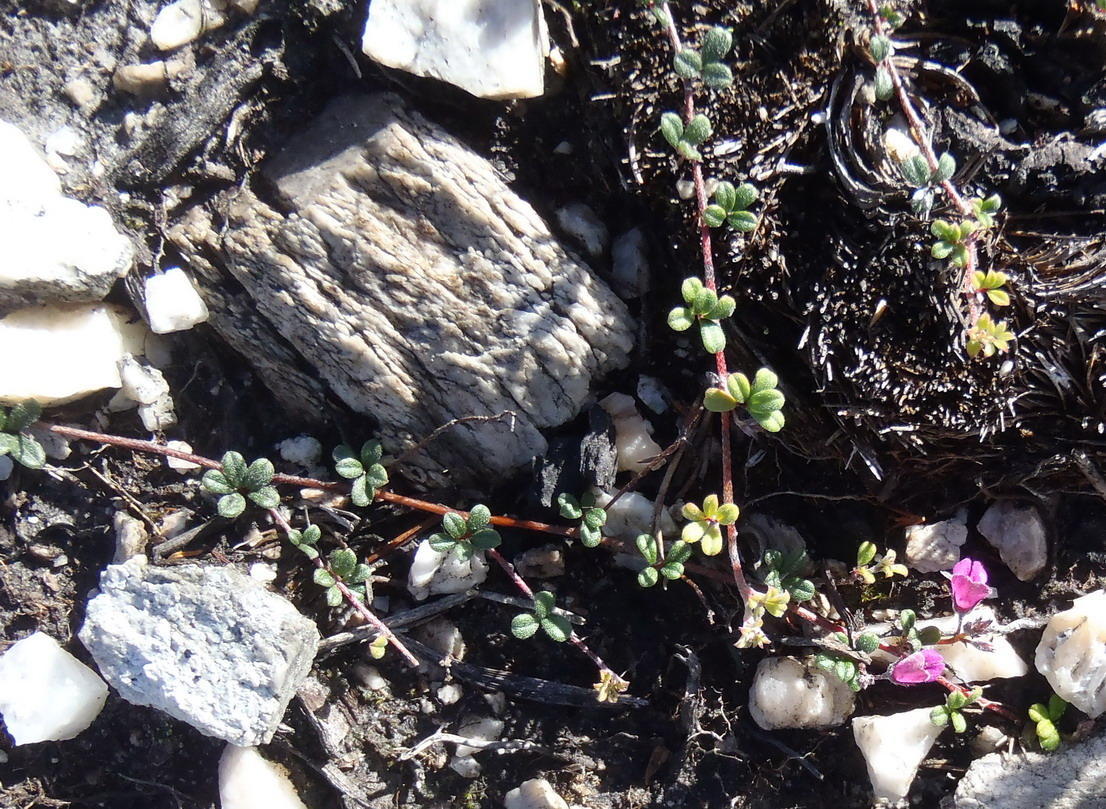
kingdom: Plantae
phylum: Tracheophyta
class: Magnoliopsida
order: Fabales
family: Fabaceae
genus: Indigofera
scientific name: Indigofera
